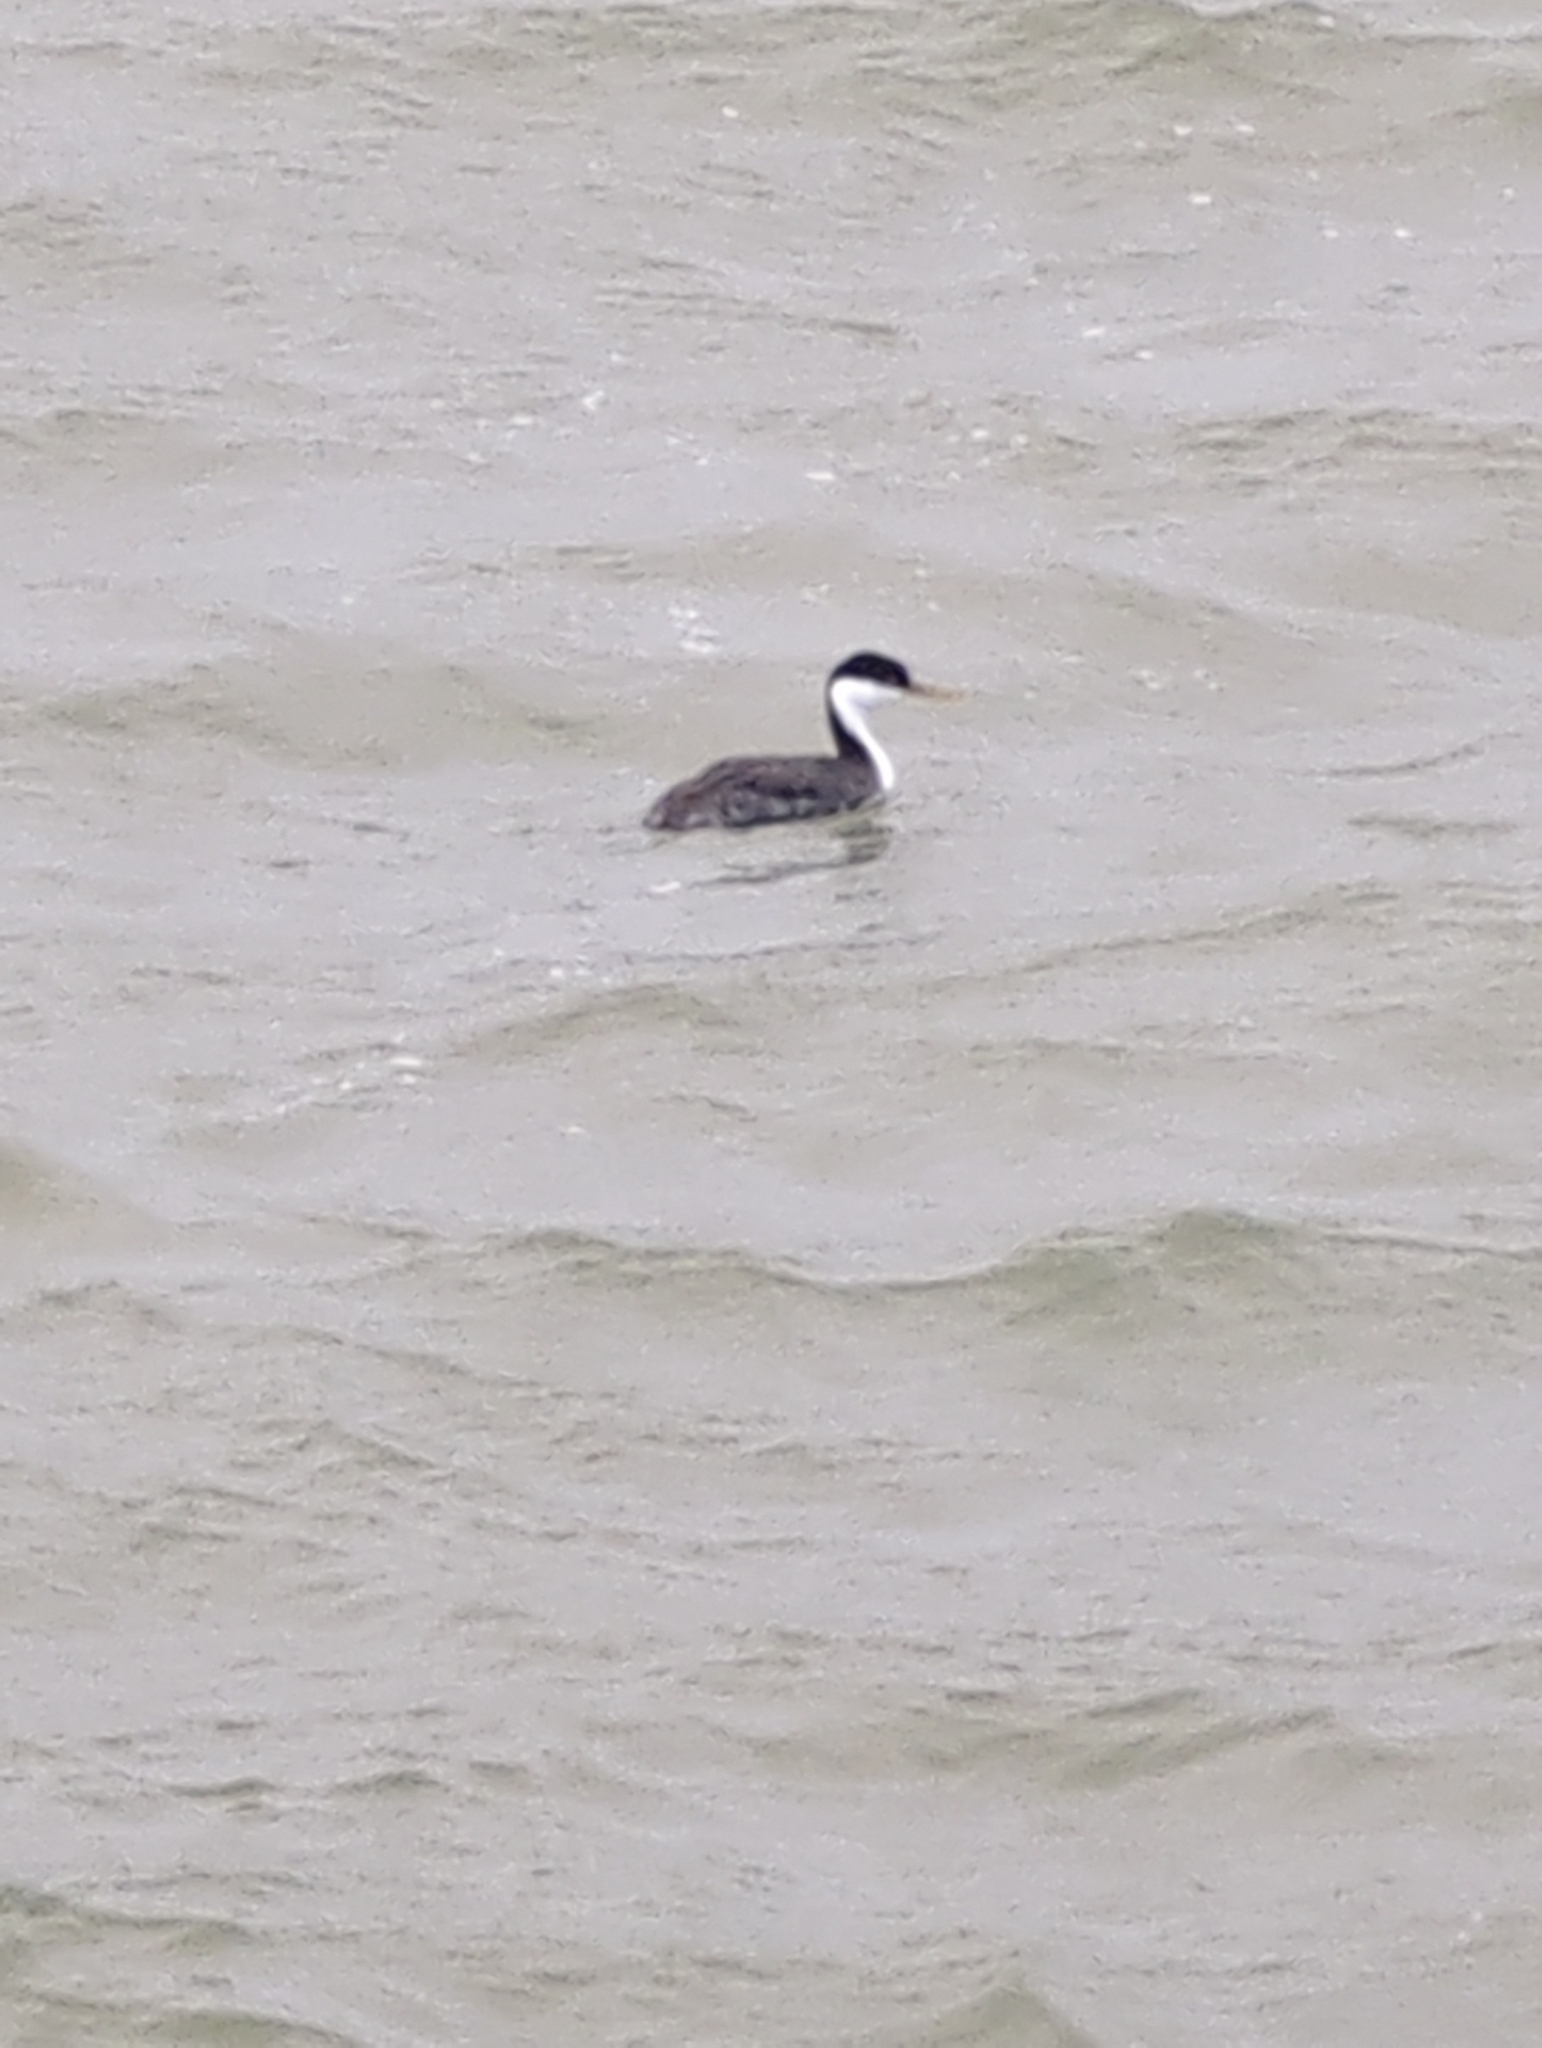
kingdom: Animalia
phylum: Chordata
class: Aves
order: Podicipediformes
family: Podicipedidae
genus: Aechmophorus
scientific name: Aechmophorus occidentalis
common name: Western grebe
